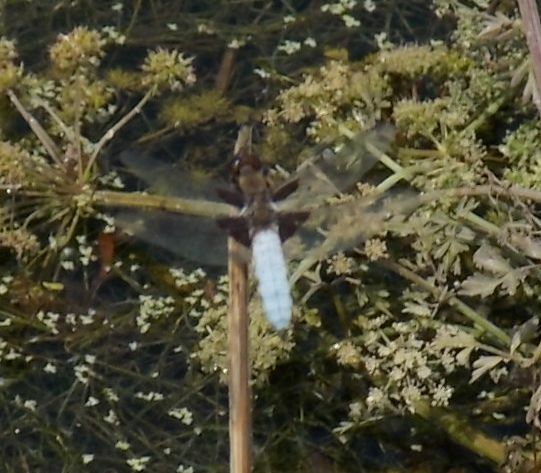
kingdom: Animalia
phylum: Arthropoda
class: Insecta
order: Odonata
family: Libellulidae
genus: Libellula
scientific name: Libellula depressa
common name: Broad-bodied chaser
